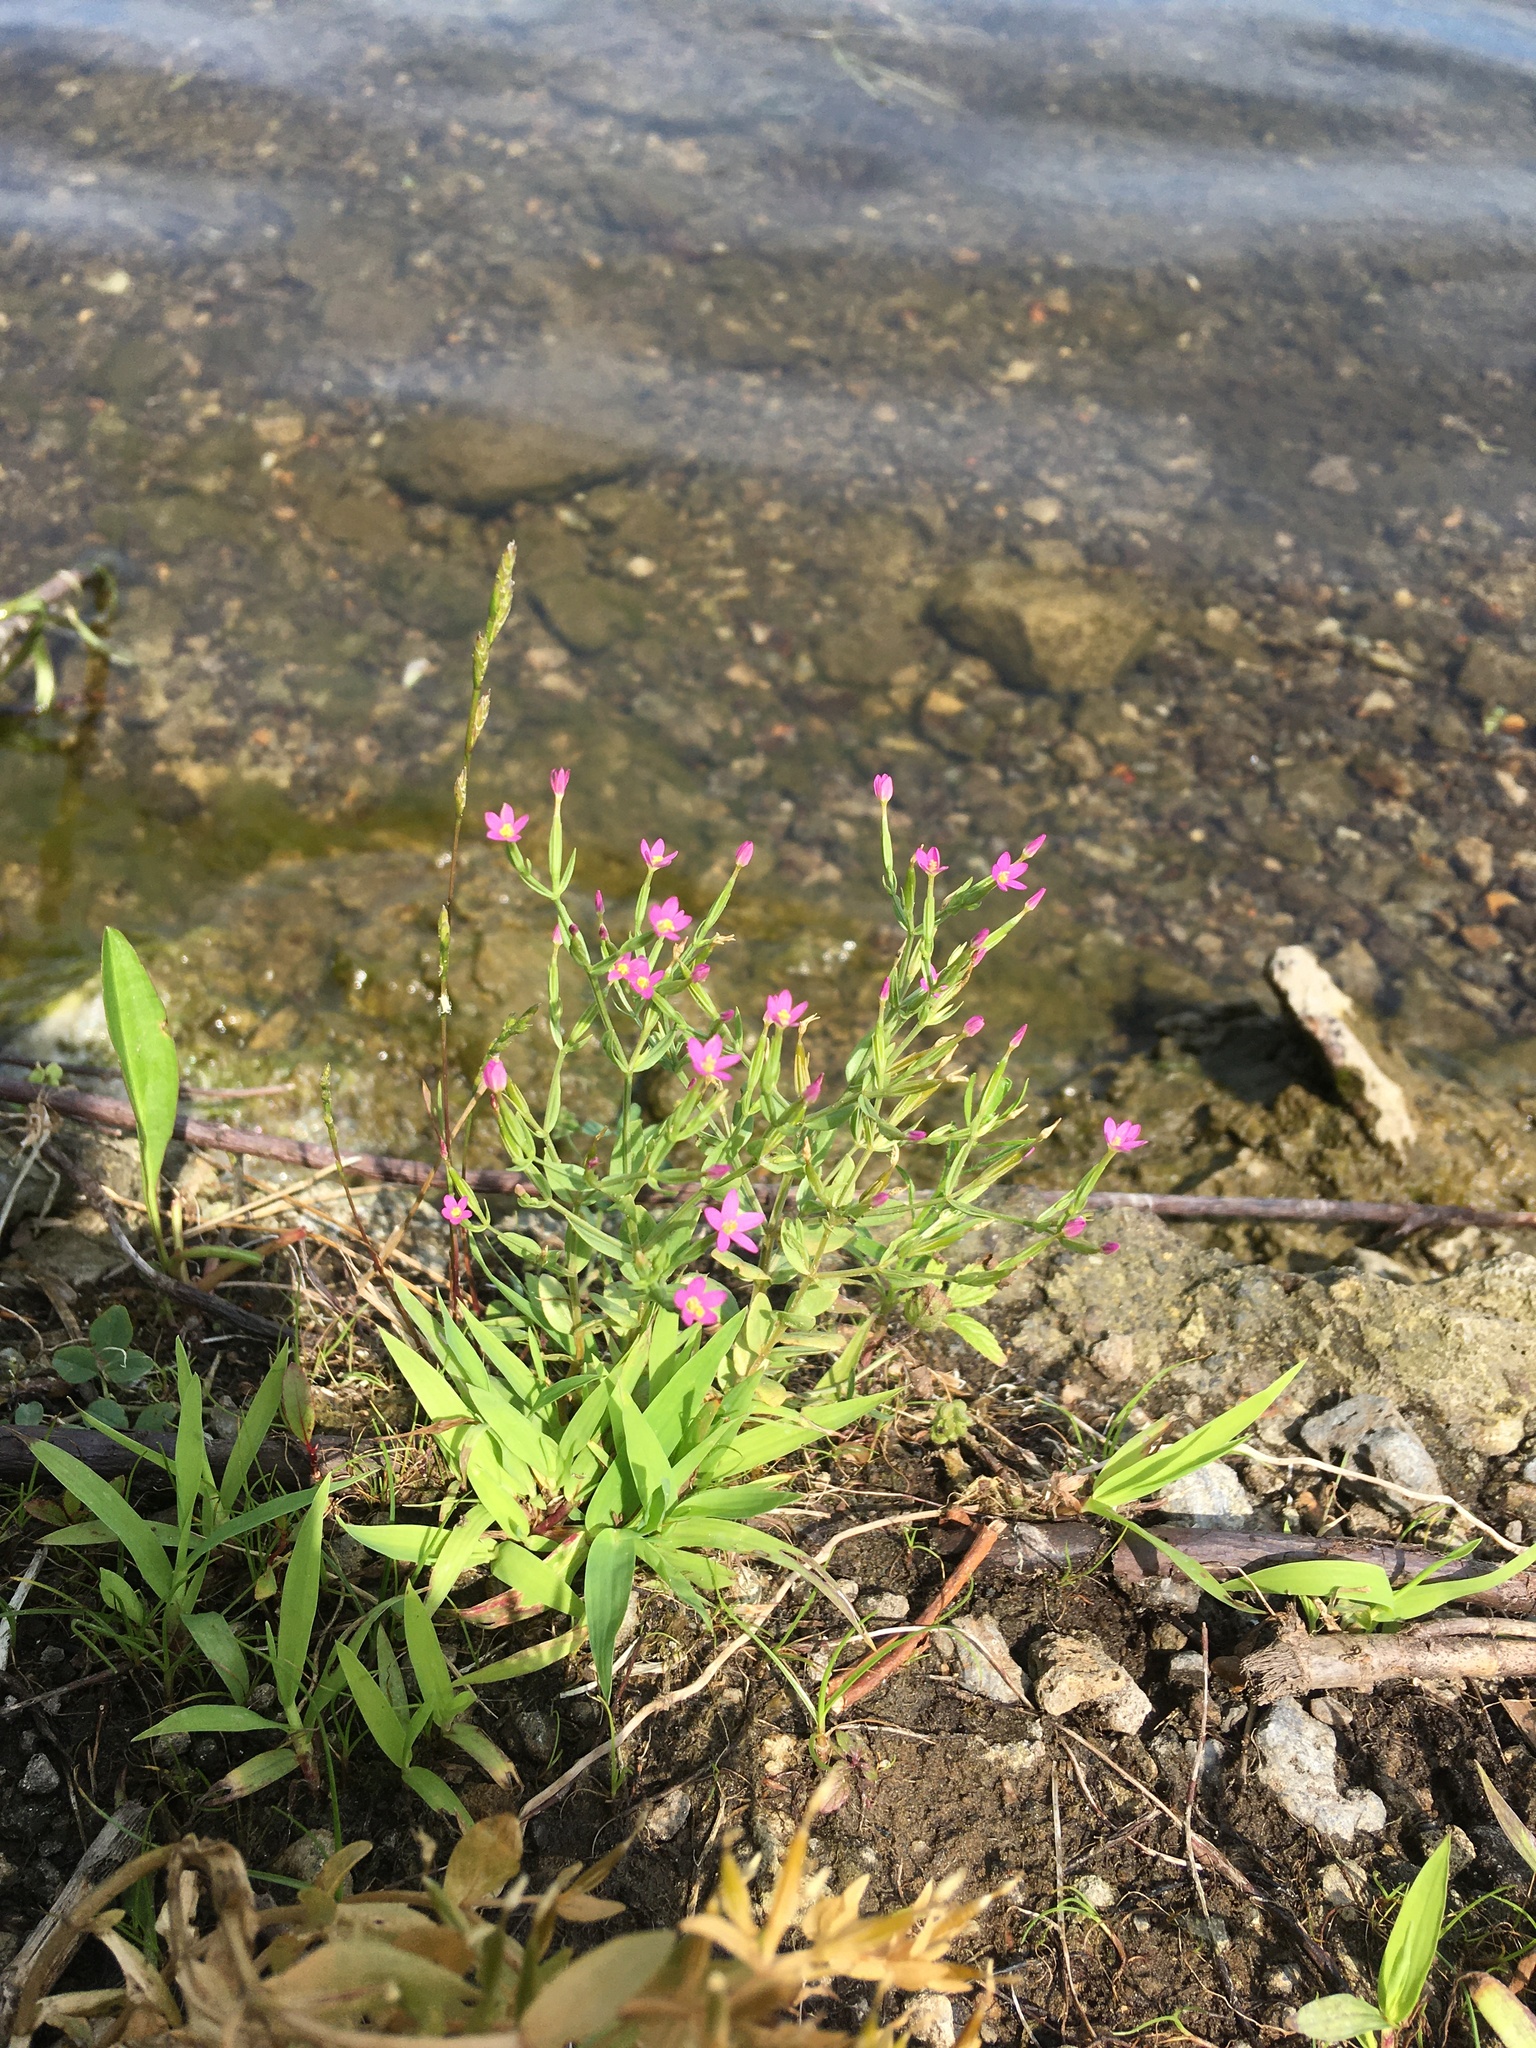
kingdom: Plantae
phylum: Tracheophyta
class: Magnoliopsida
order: Gentianales
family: Gentianaceae
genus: Centaurium
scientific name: Centaurium pulchellum
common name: Lesser centaury
